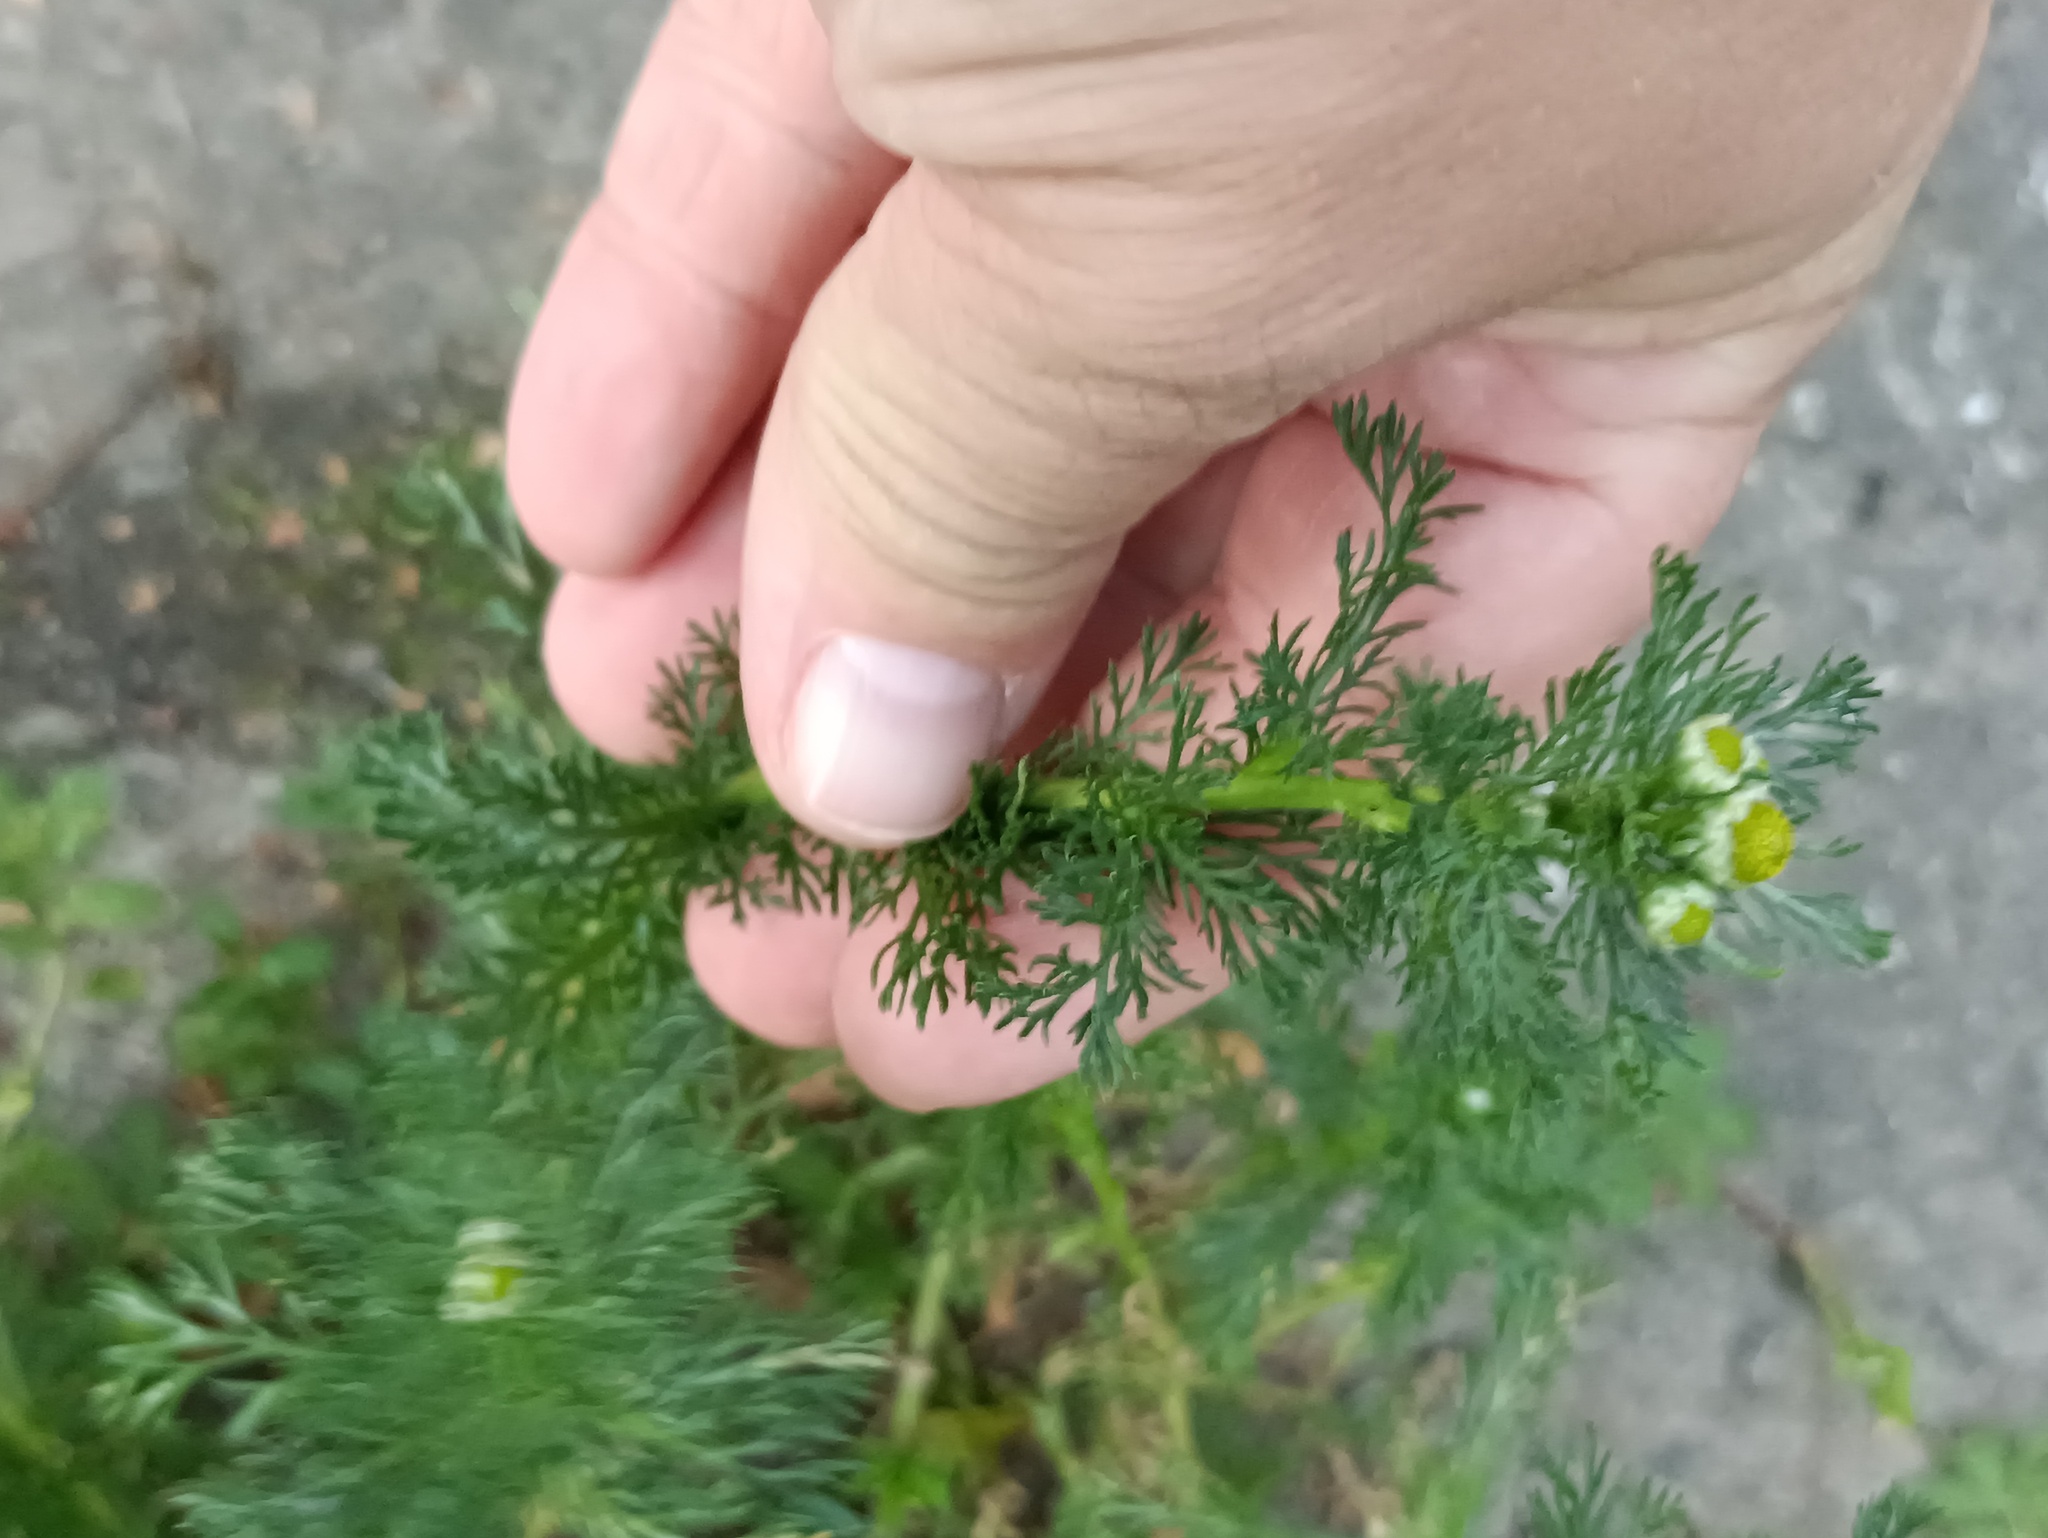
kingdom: Plantae
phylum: Tracheophyta
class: Magnoliopsida
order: Asterales
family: Asteraceae
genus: Matricaria
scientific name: Matricaria discoidea
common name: Disc mayweed
